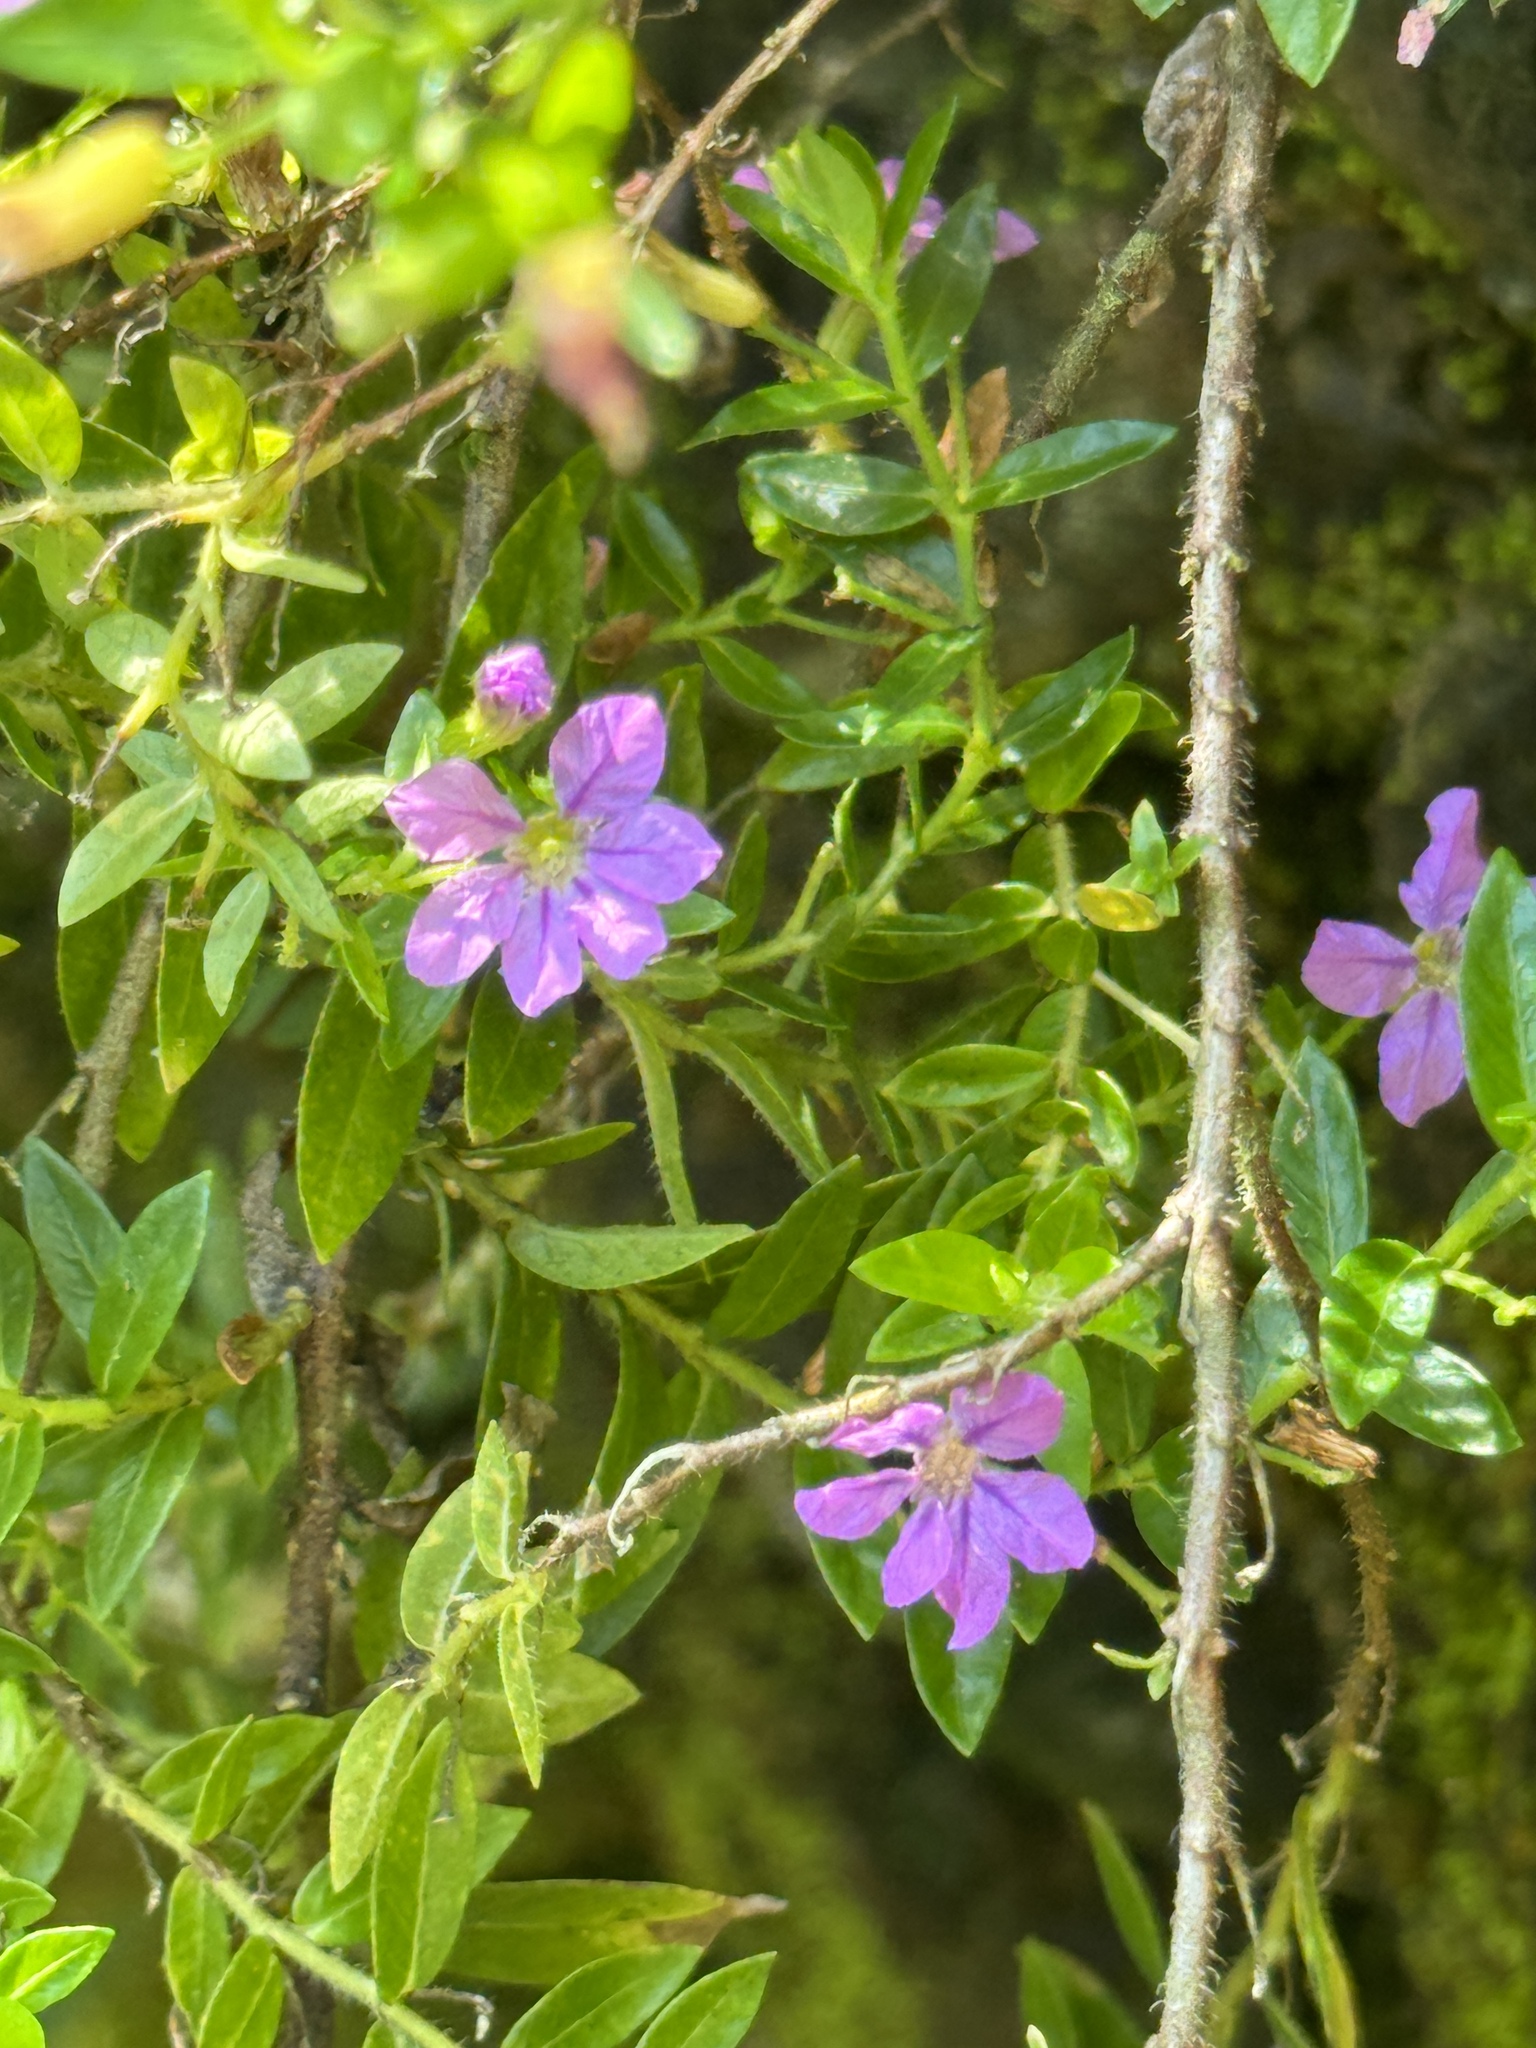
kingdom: Plantae
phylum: Tracheophyta
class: Magnoliopsida
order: Myrtales
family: Lythraceae
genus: Cuphea
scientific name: Cuphea hyssopifolia
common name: False heather
